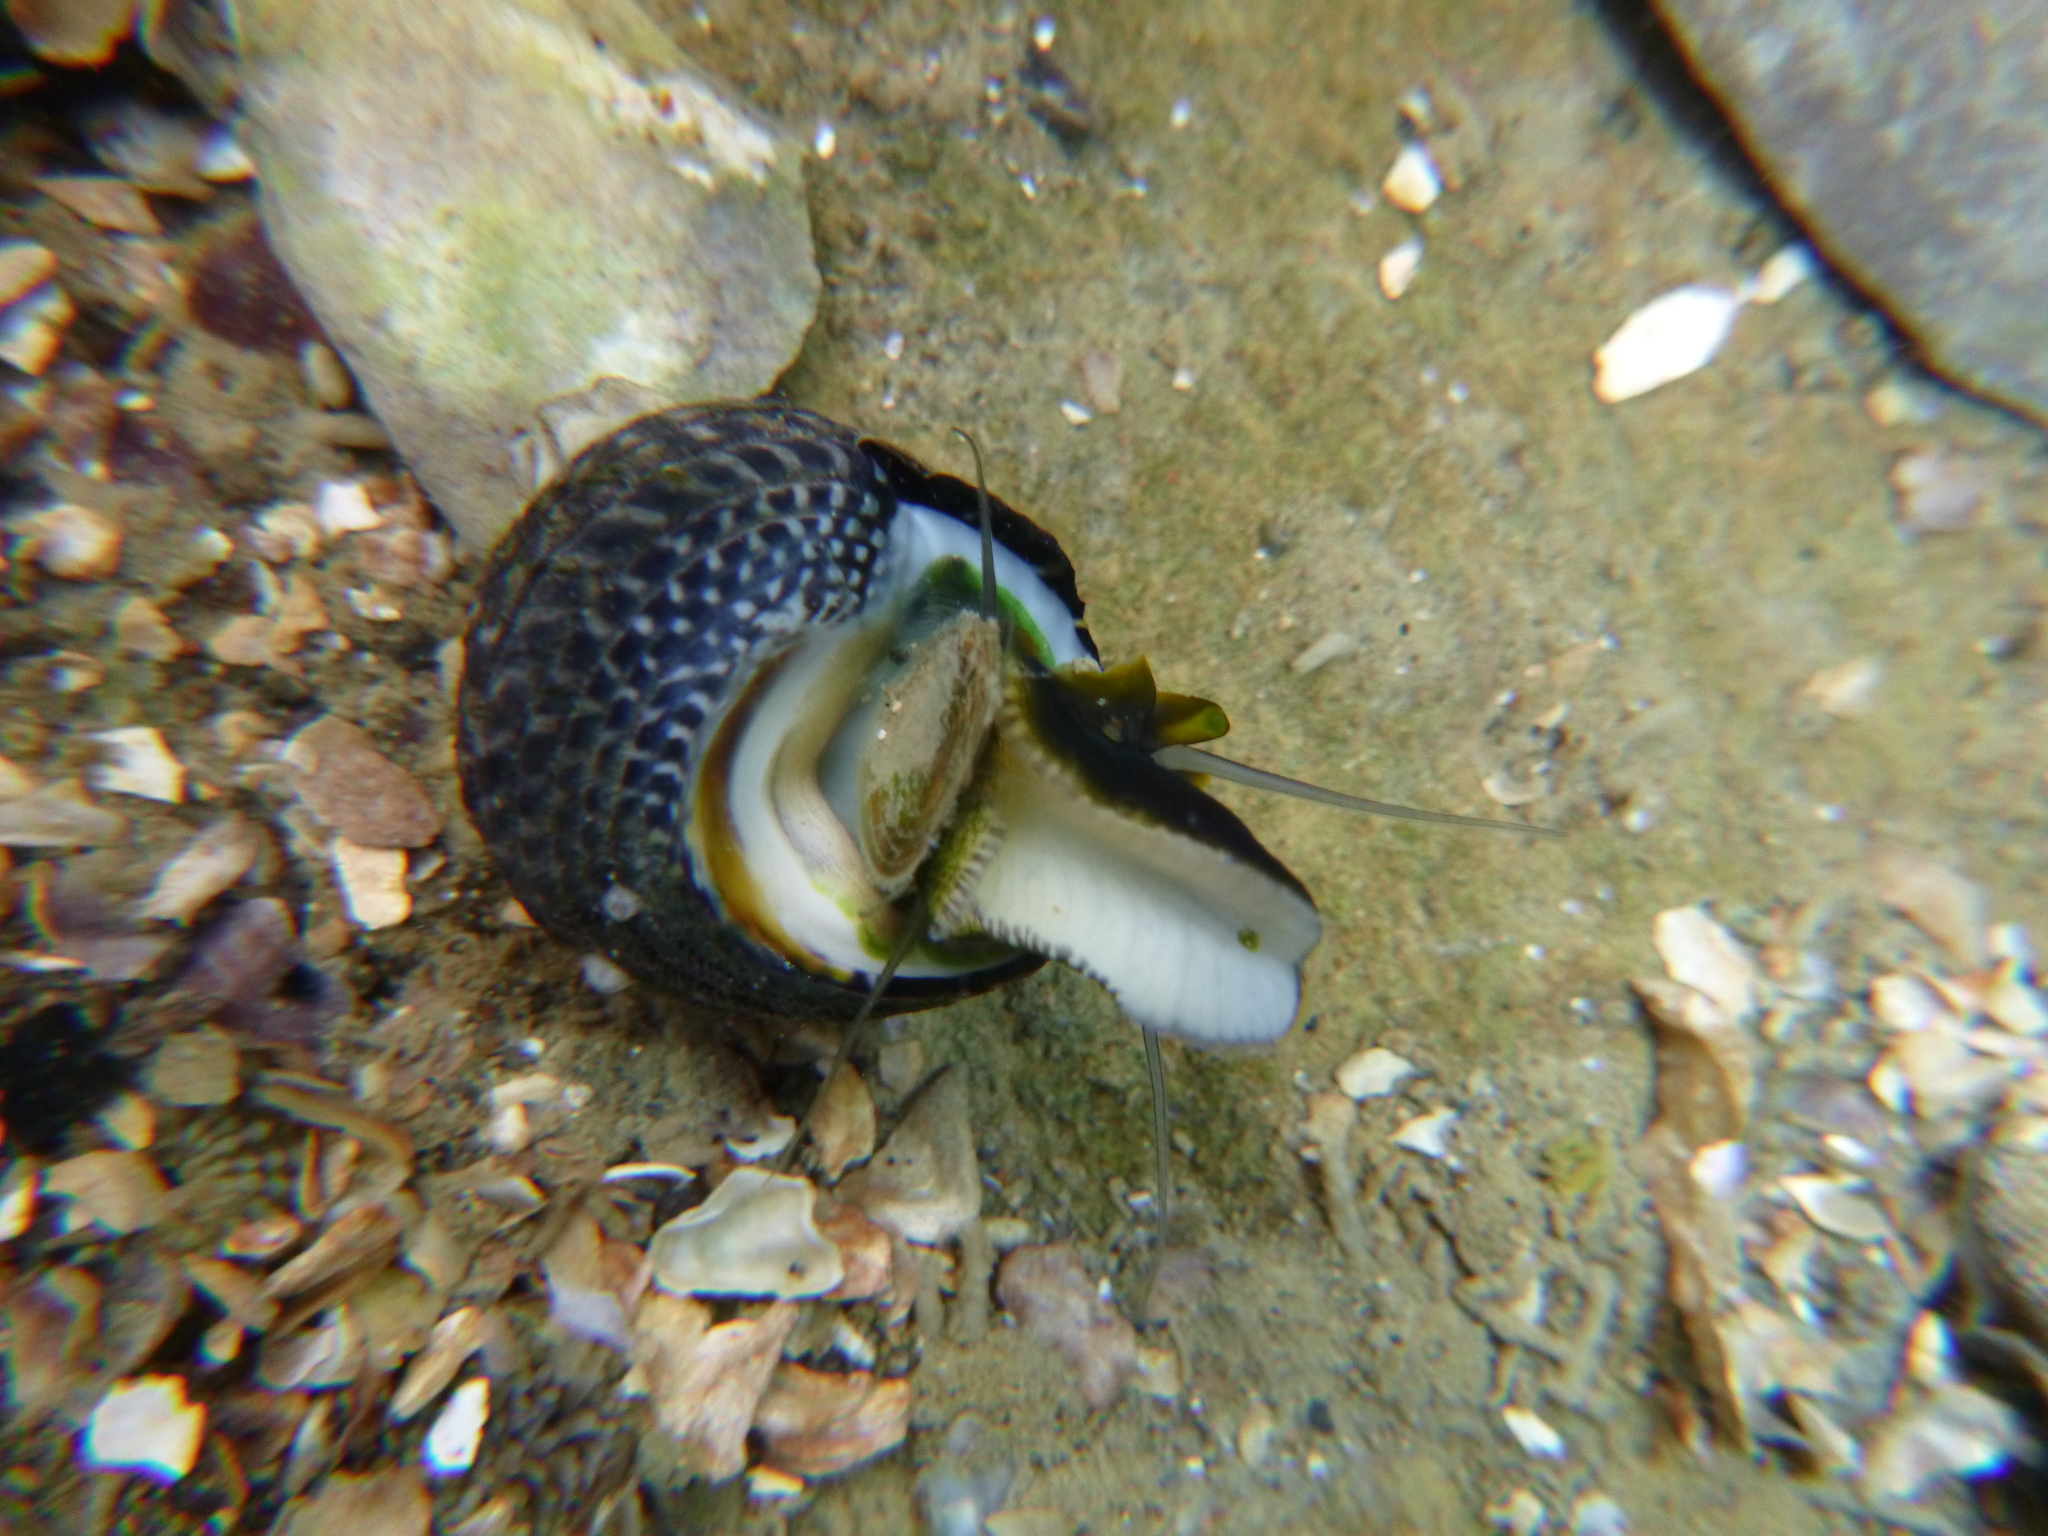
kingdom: Animalia
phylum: Mollusca
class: Gastropoda
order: Trochida
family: Trochidae
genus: Diloma
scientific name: Diloma aethiops
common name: Scorched monodont
